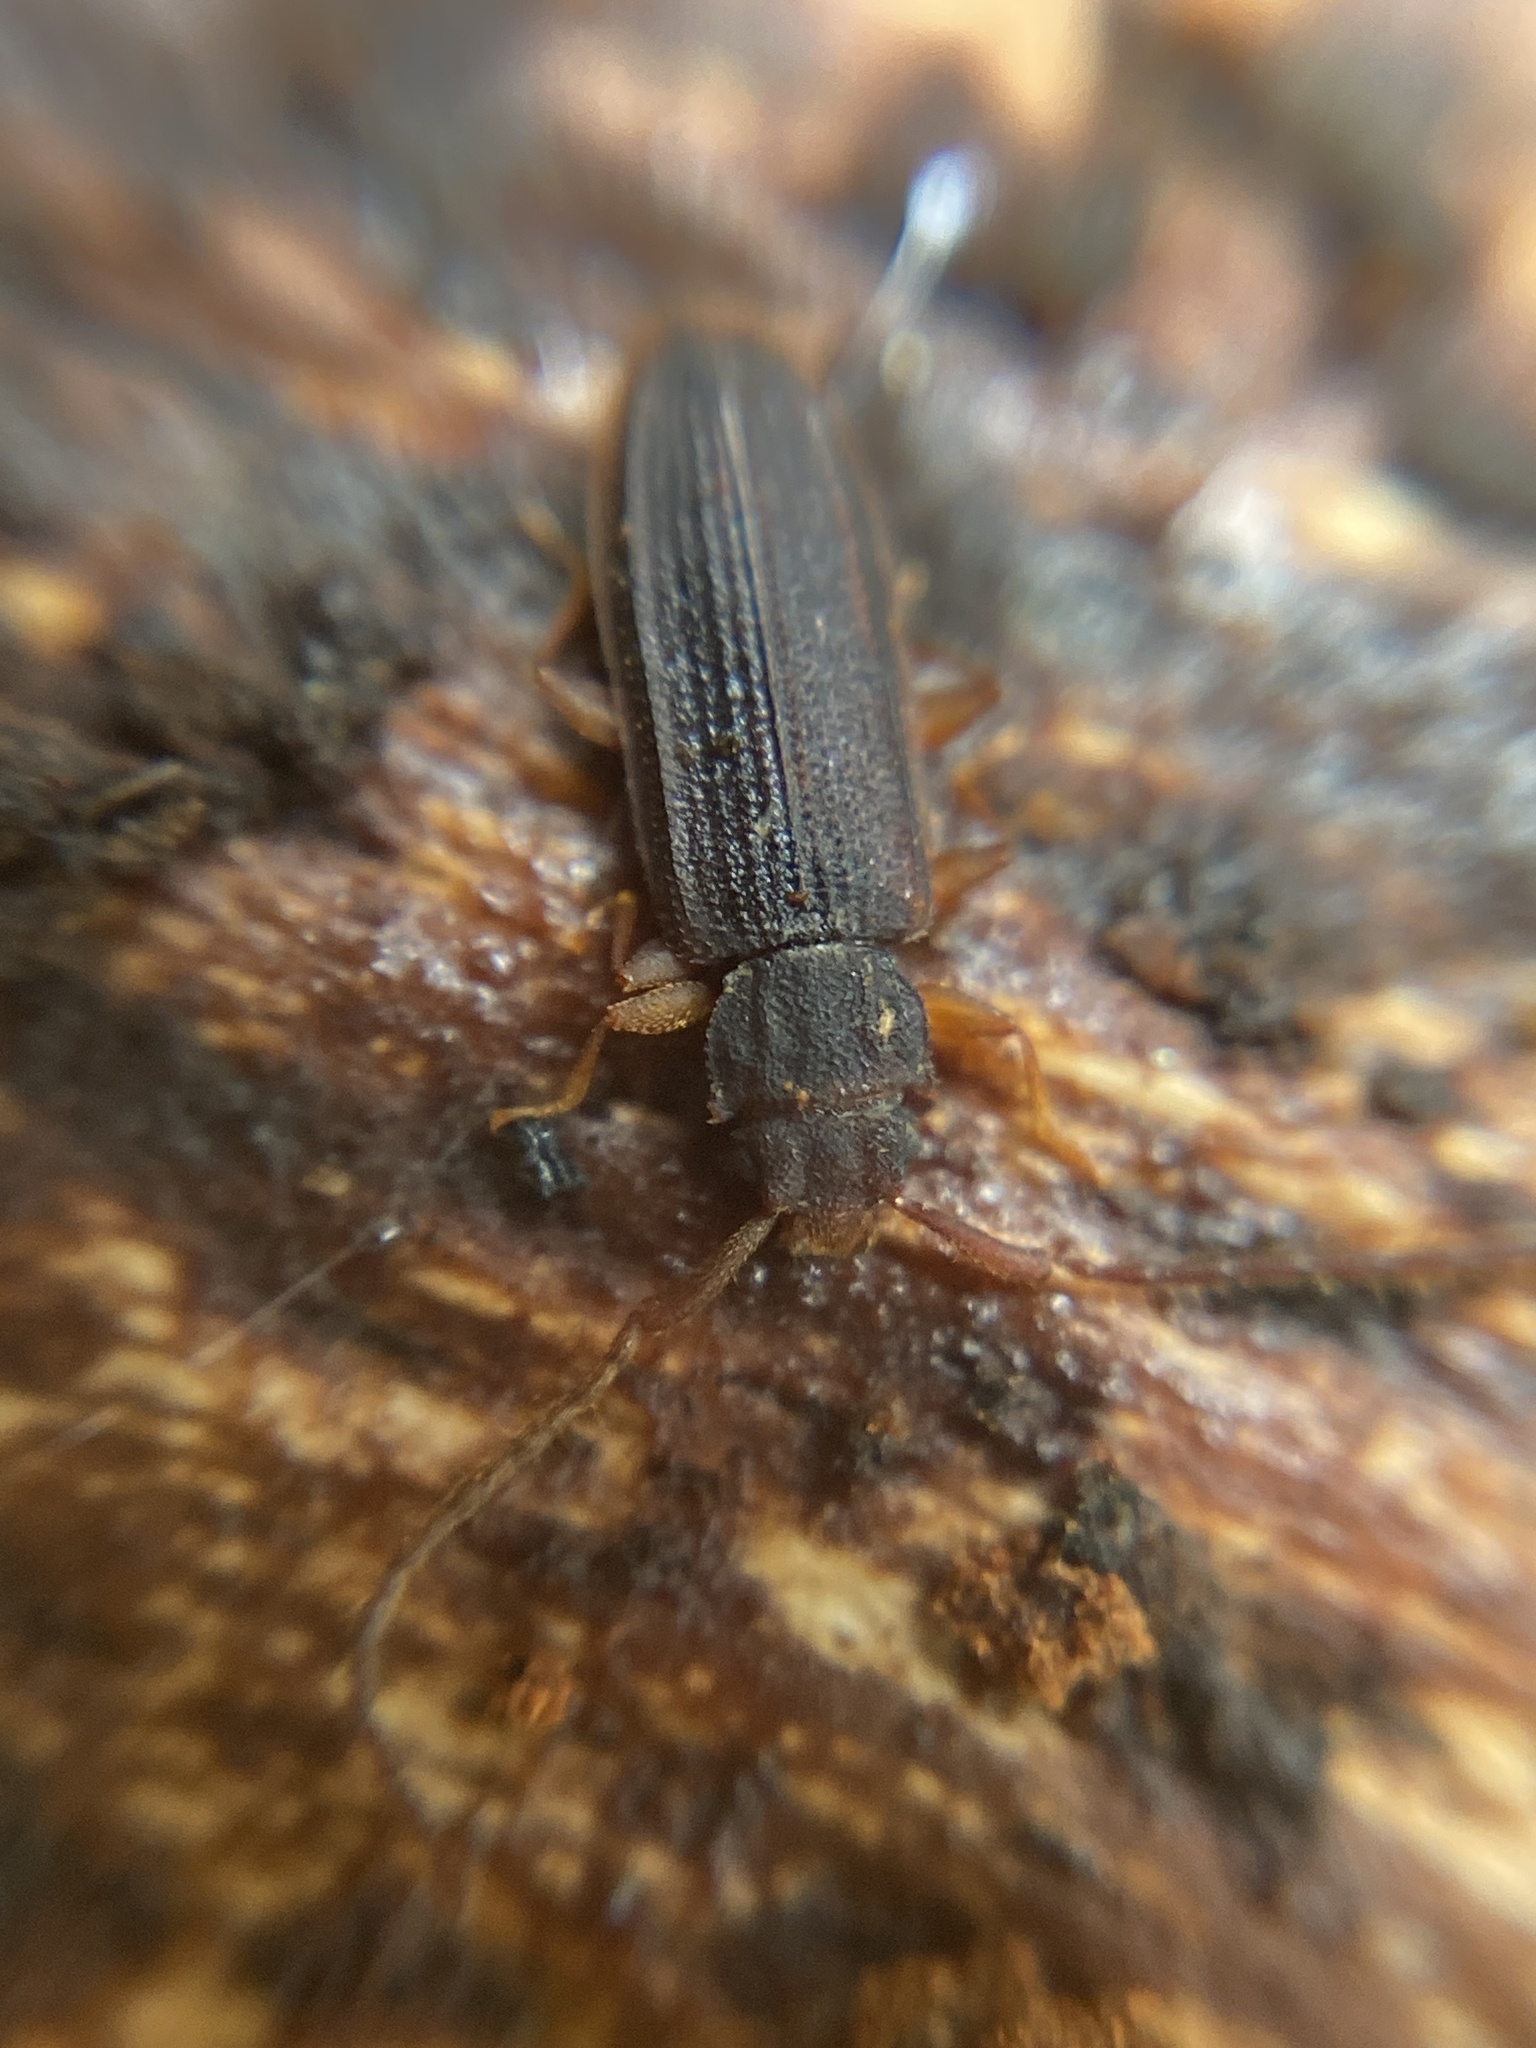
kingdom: Animalia
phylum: Arthropoda
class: Insecta
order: Coleoptera
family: Silvanidae
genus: Uleiota
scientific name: Uleiota planatus
